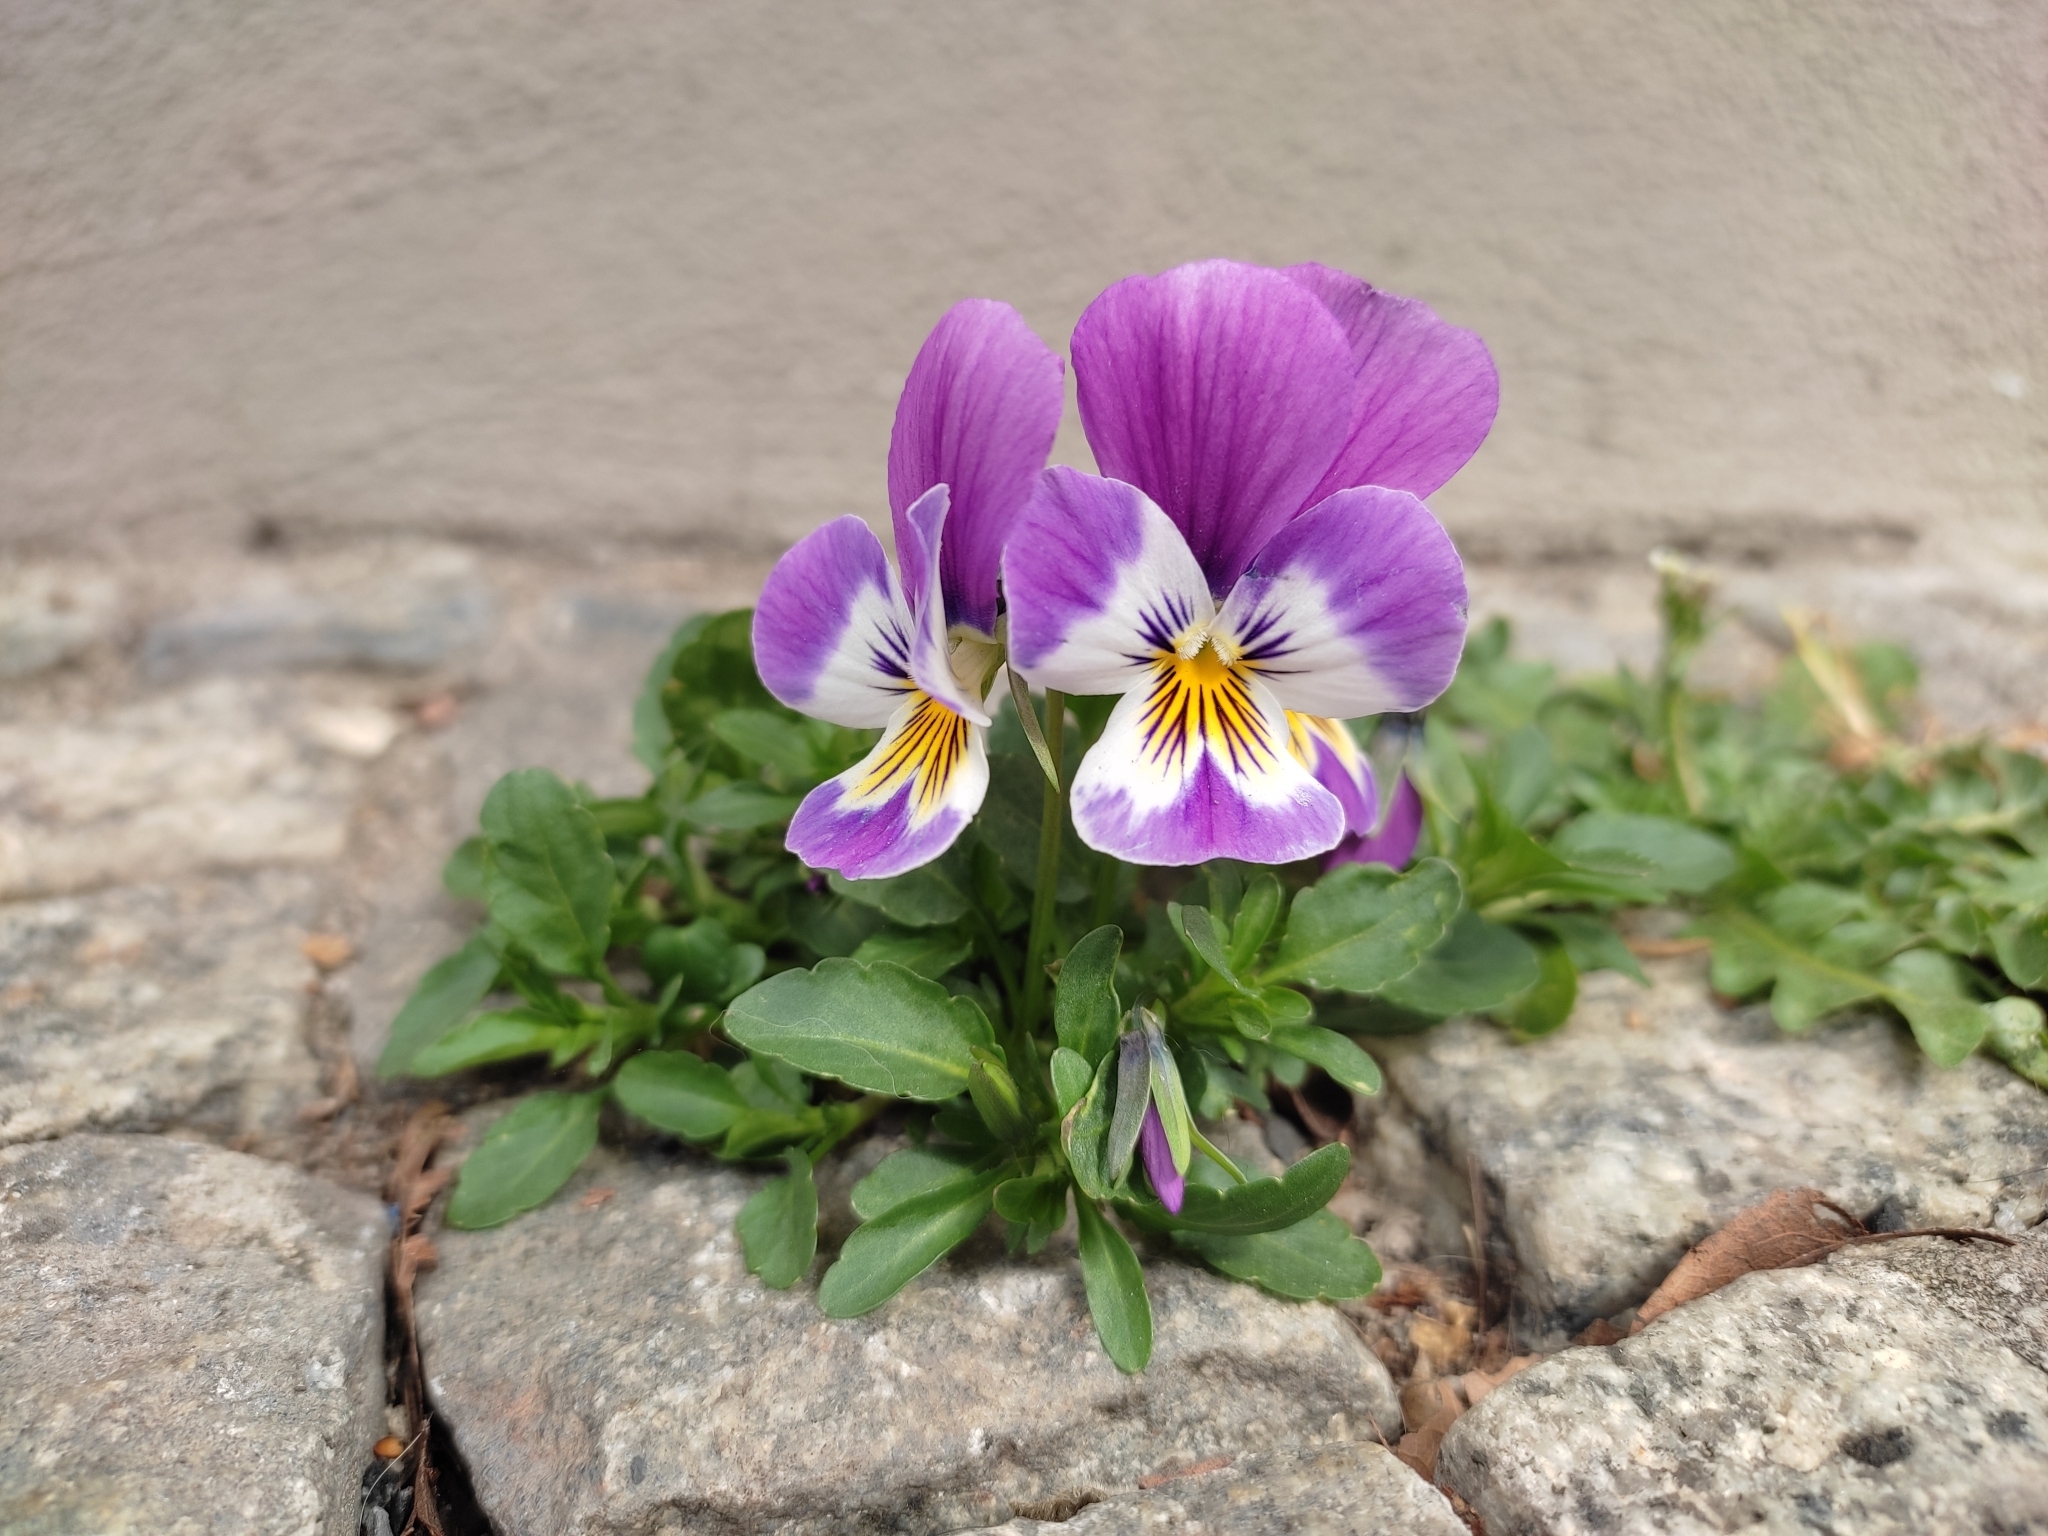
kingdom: Plantae
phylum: Tracheophyta
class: Magnoliopsida
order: Malpighiales
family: Violaceae
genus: Viola
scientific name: Viola wittrockiana
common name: Garden pansy
